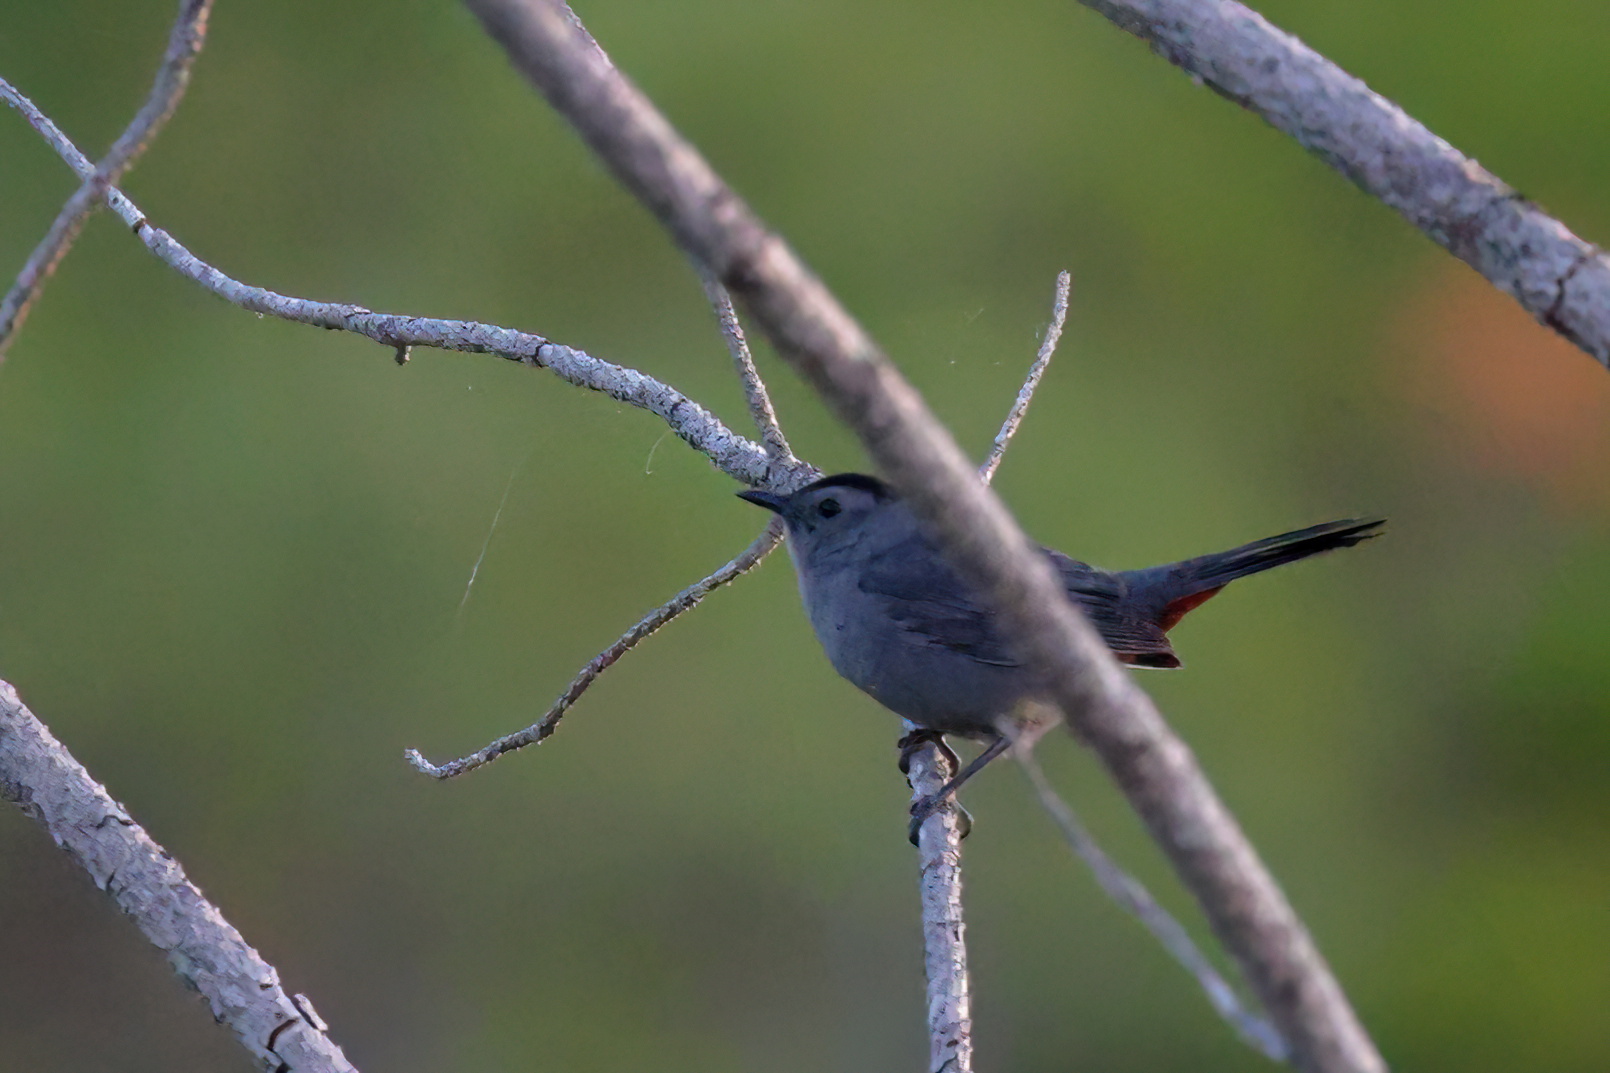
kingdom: Animalia
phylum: Chordata
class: Aves
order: Passeriformes
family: Mimidae
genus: Dumetella
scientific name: Dumetella carolinensis
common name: Gray catbird
